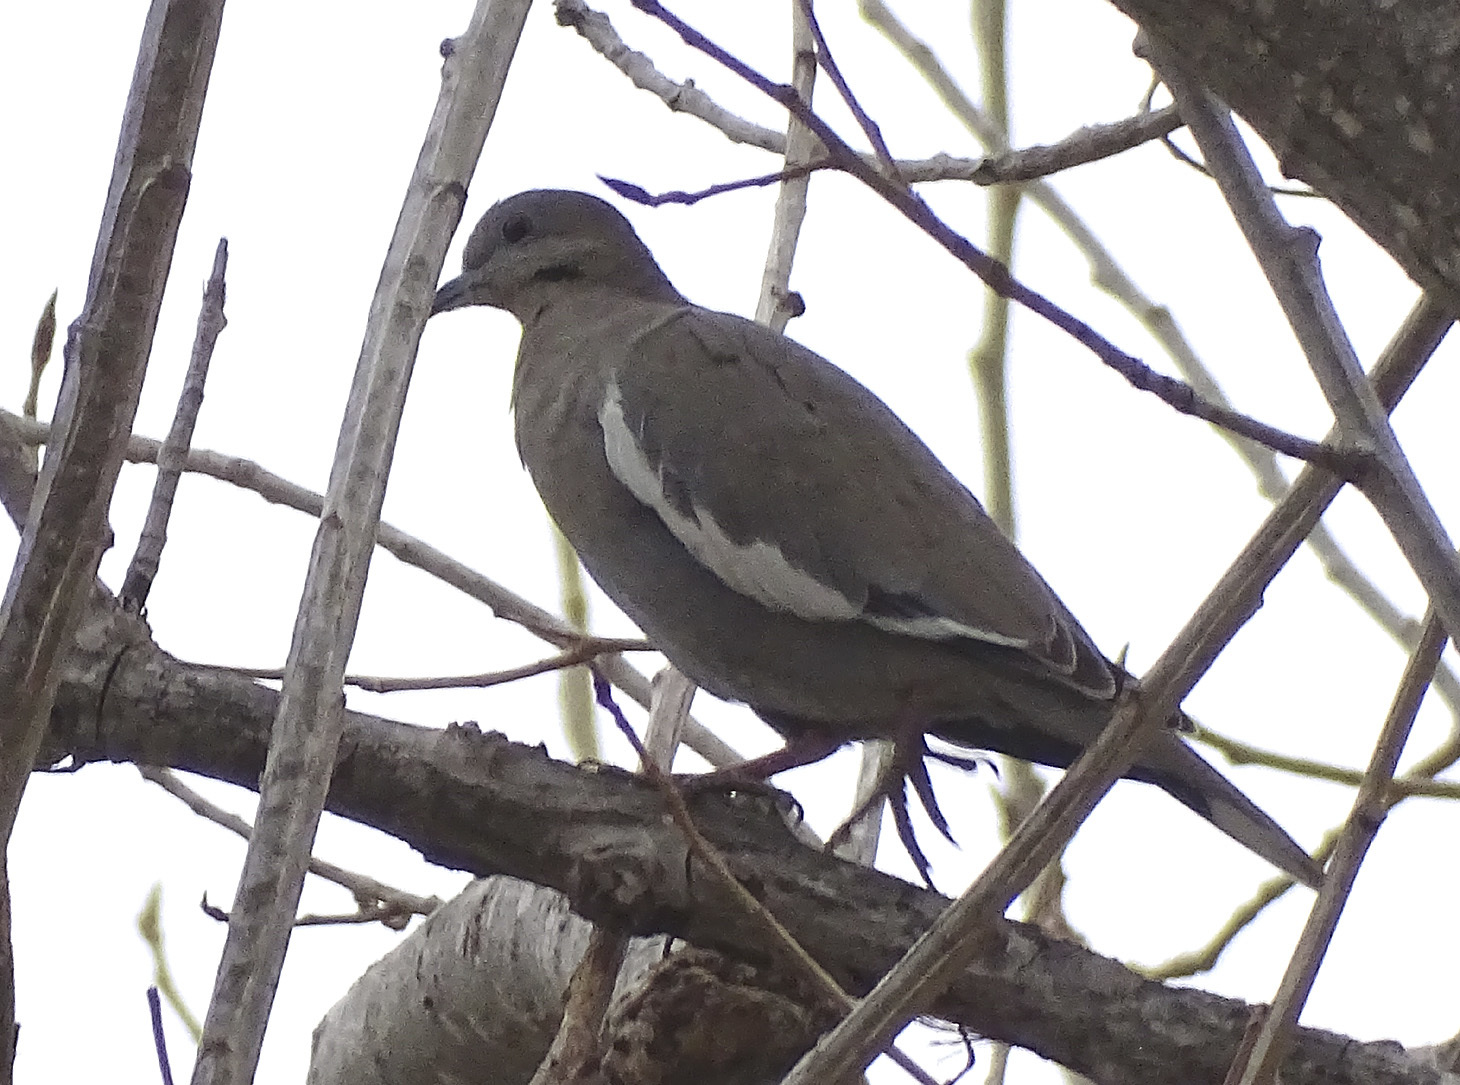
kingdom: Animalia
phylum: Chordata
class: Aves
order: Columbiformes
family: Columbidae
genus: Zenaida
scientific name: Zenaida asiatica
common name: White-winged dove
